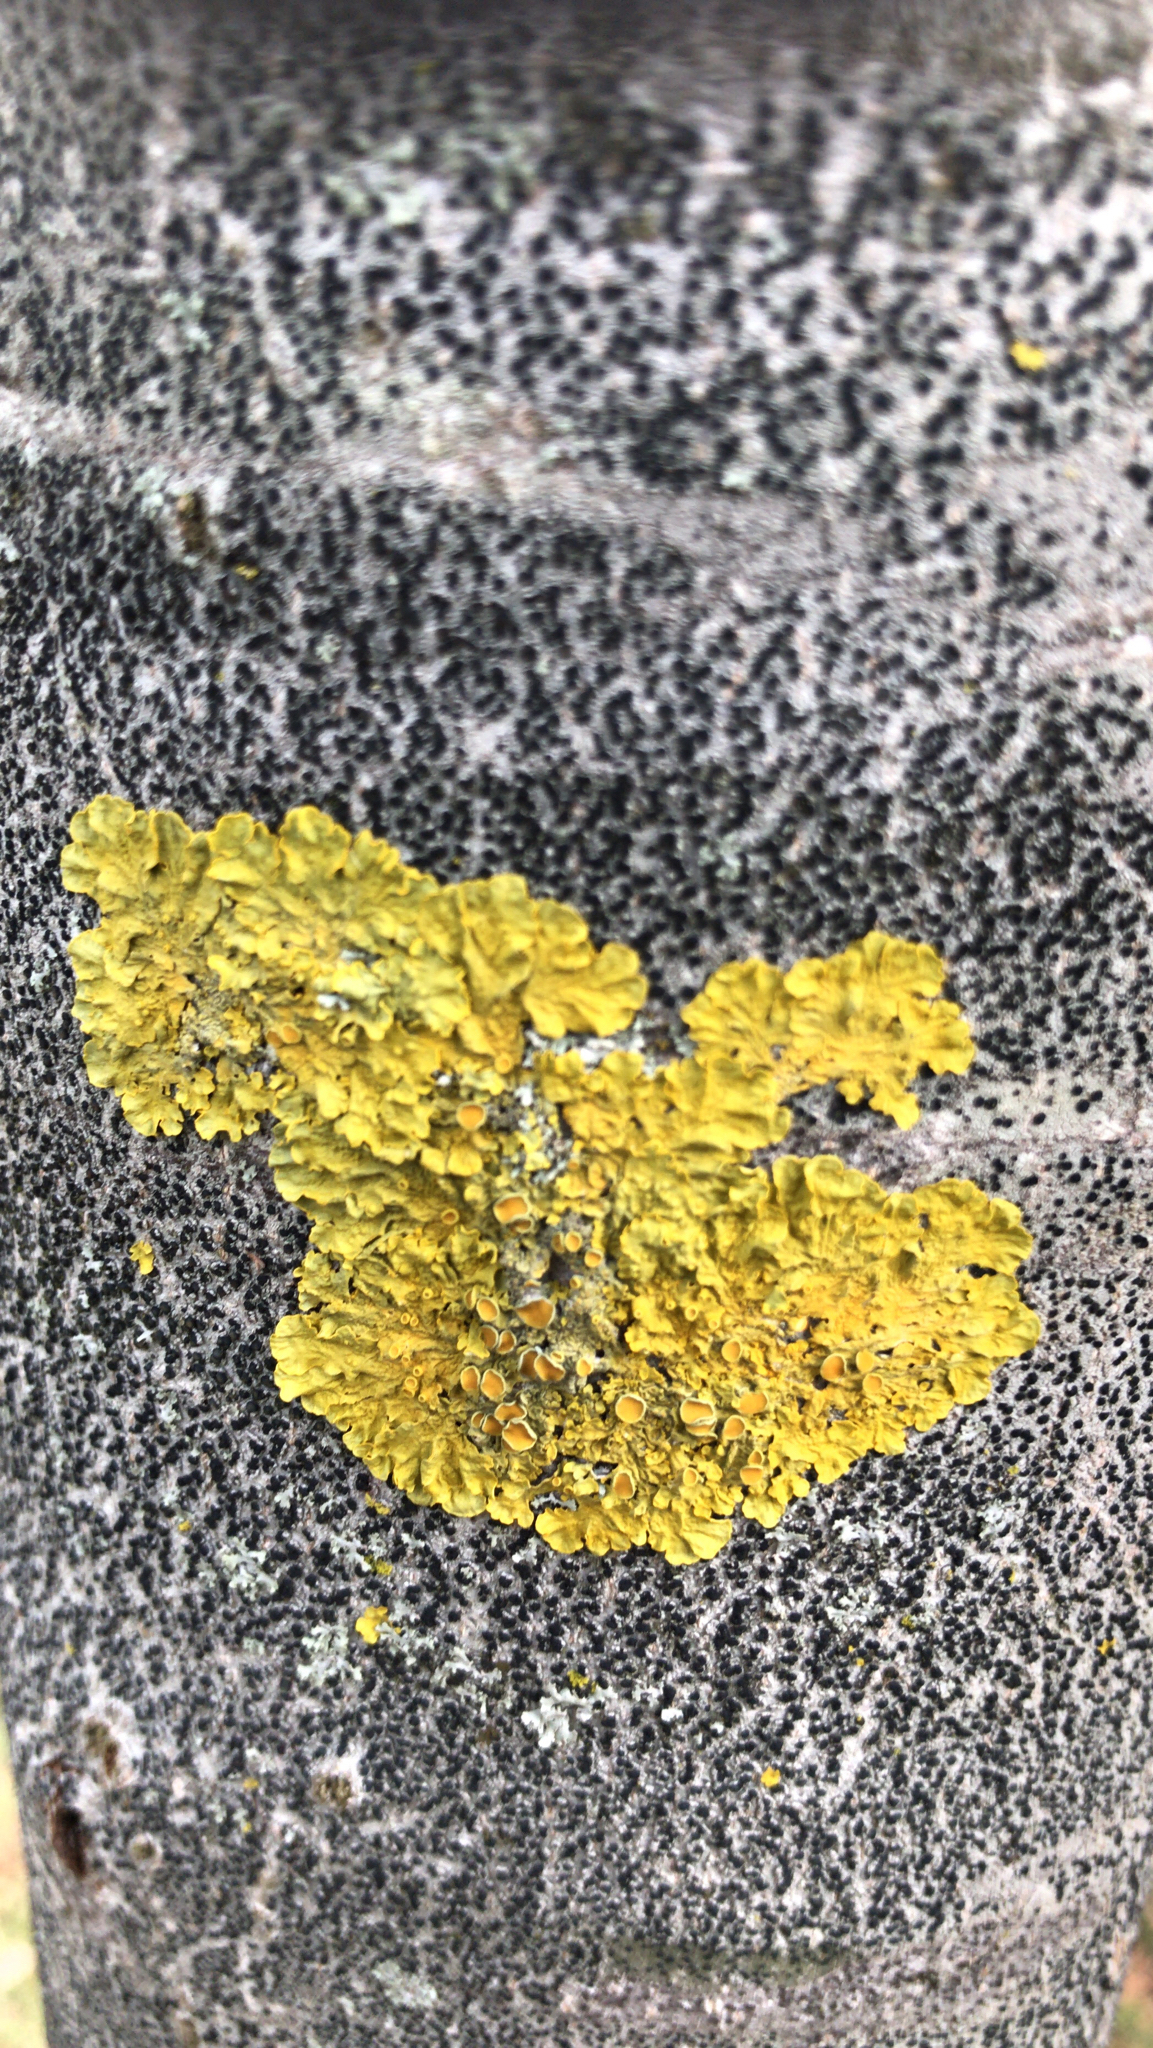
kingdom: Fungi
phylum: Ascomycota
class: Lecanoromycetes
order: Teloschistales
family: Teloschistaceae
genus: Xanthoria
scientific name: Xanthoria parietina
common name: Common orange lichen
